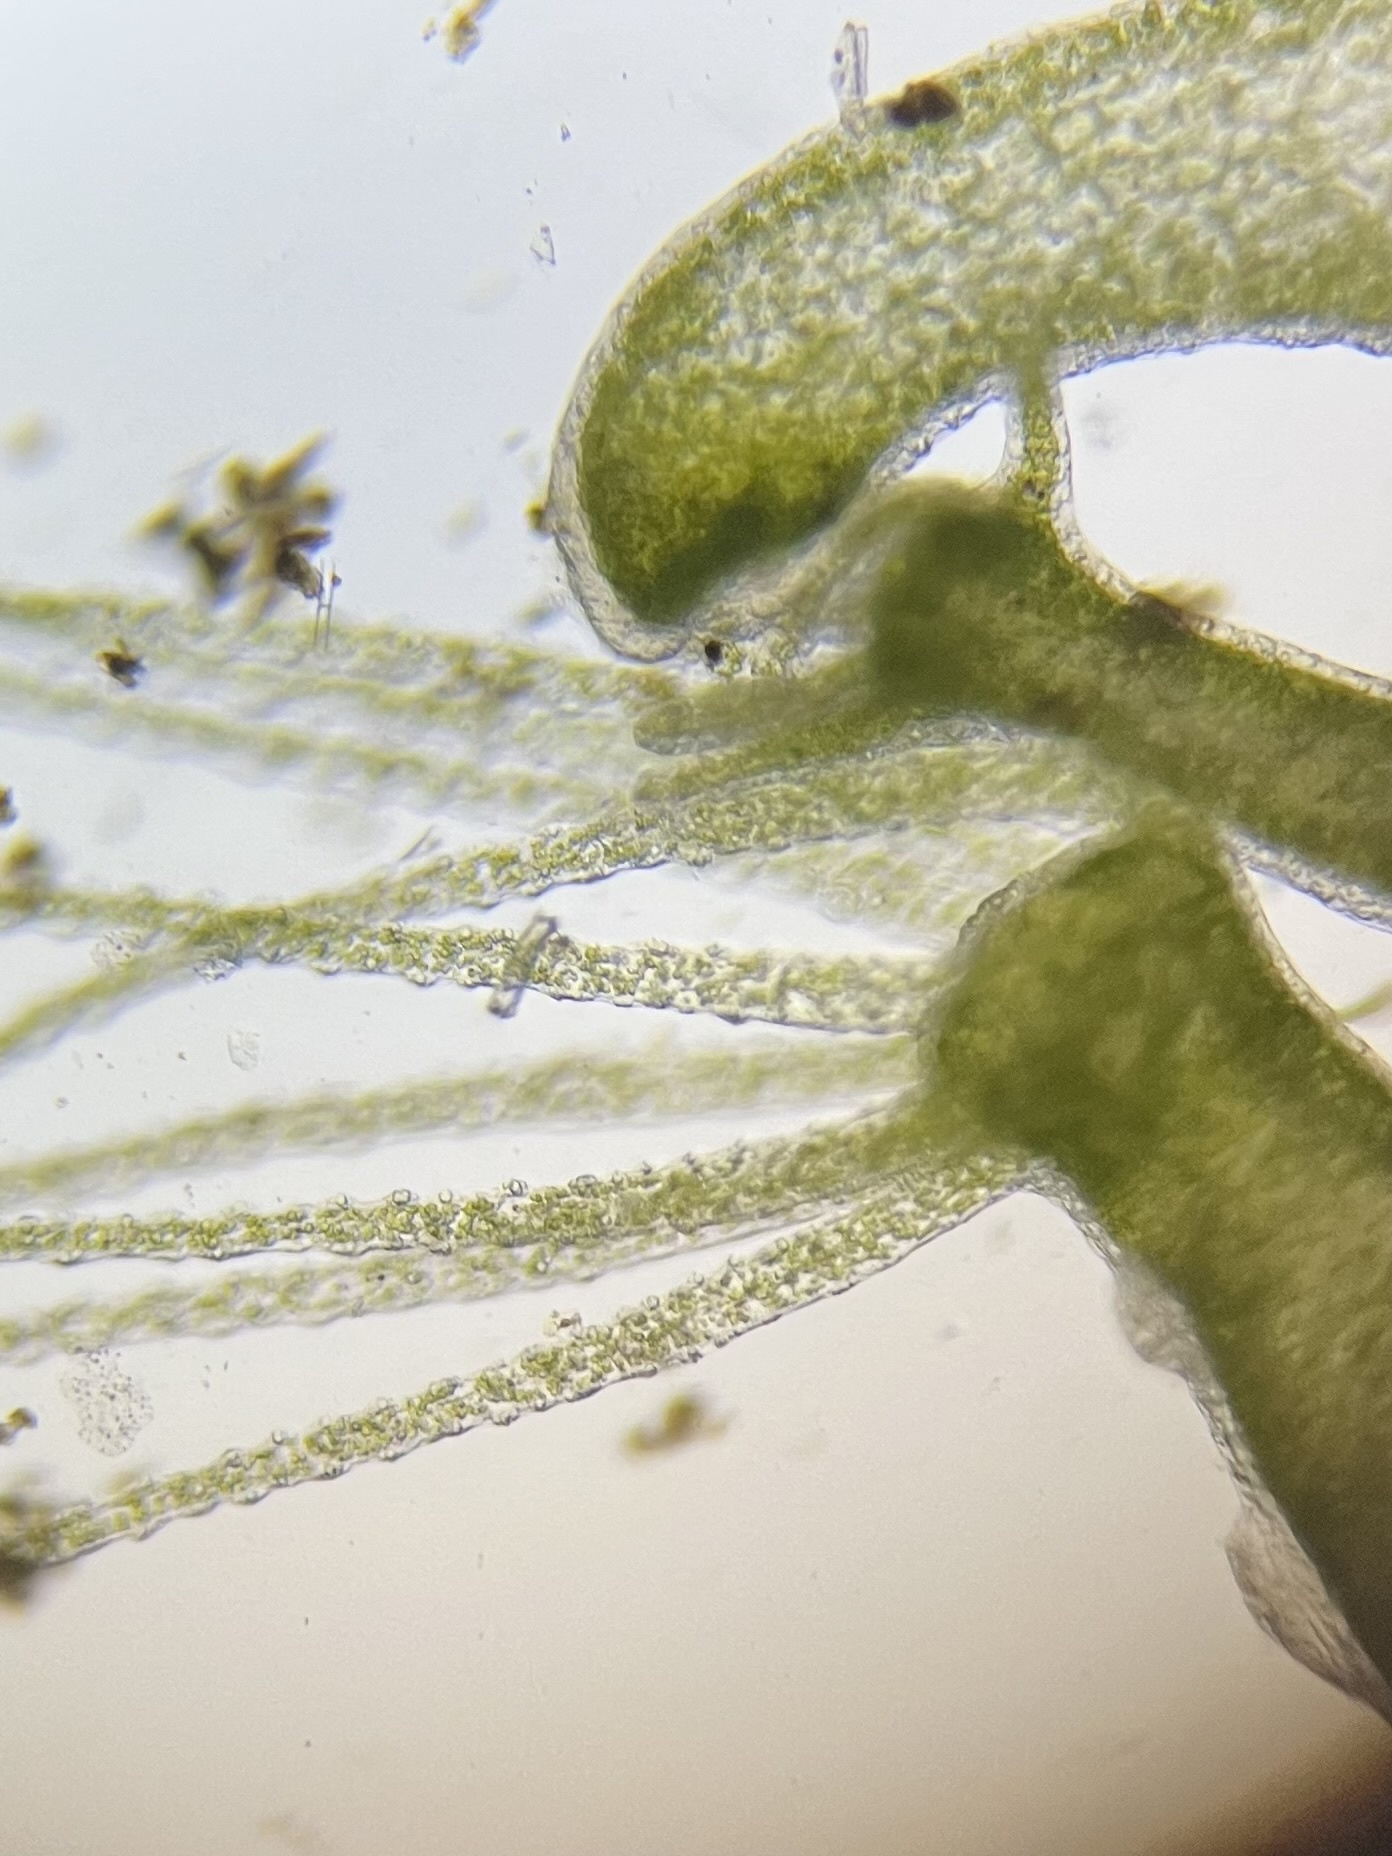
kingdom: Animalia
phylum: Cnidaria
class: Hydrozoa
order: Anthoathecata
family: Hydridae
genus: Hydra
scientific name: Hydra viridissima
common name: Green hydra
